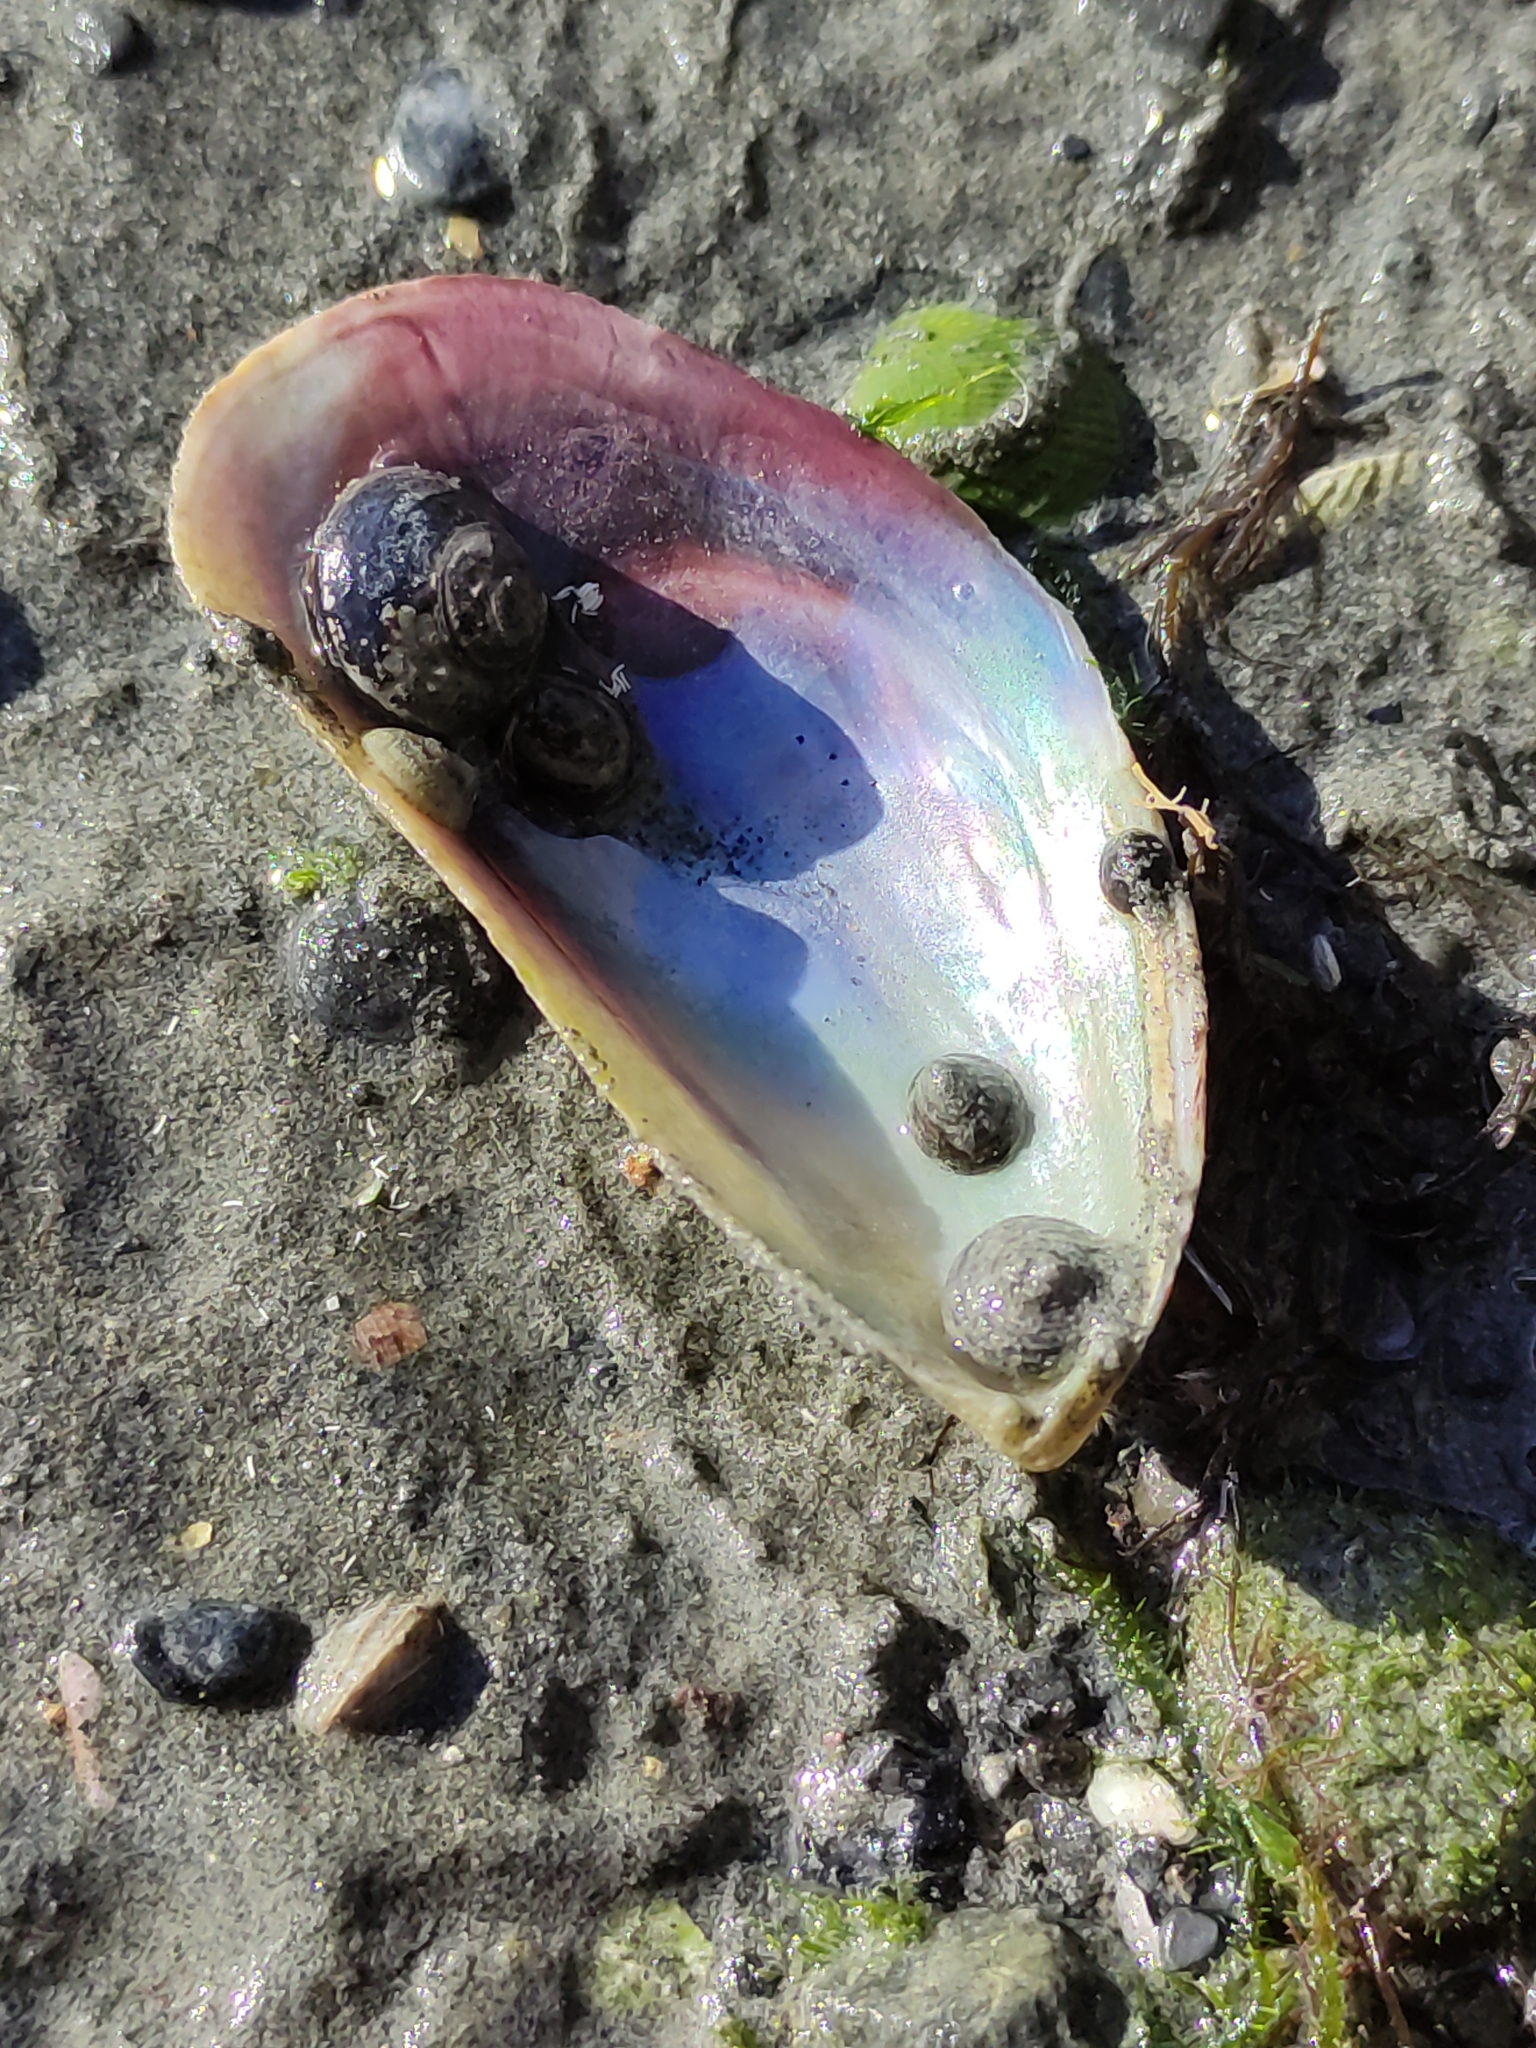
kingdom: Animalia
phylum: Mollusca
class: Bivalvia
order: Mytilida
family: Mytilidae
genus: Perna
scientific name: Perna canaliculus
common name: New zealand greenshelltm
